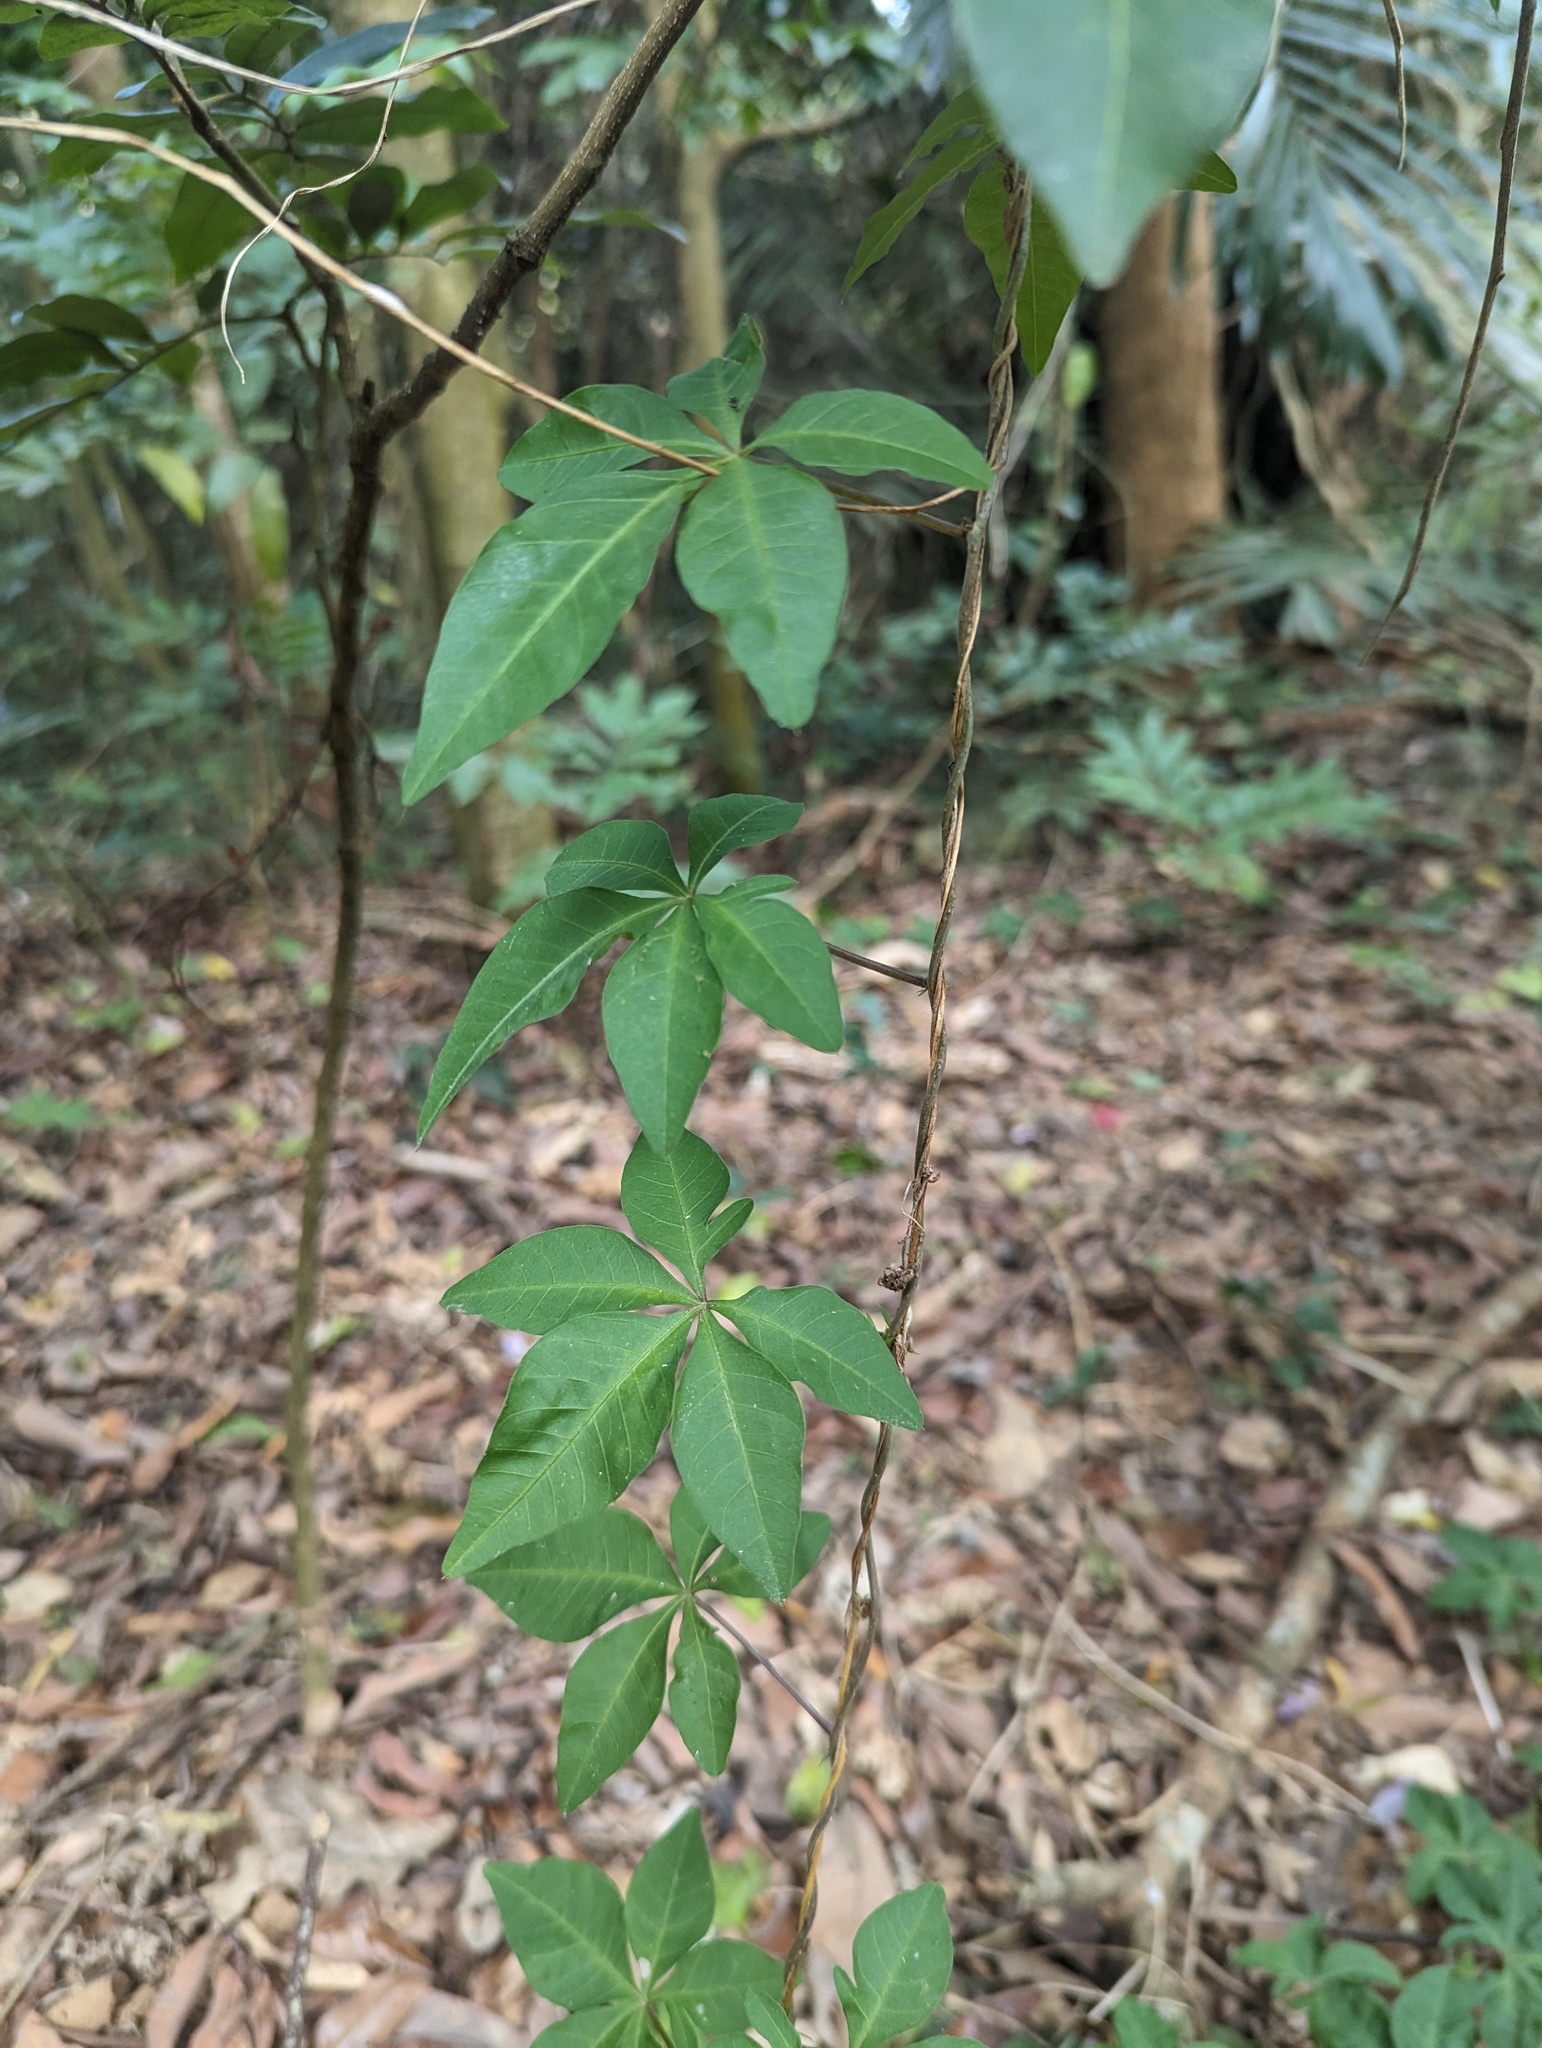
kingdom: Plantae
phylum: Tracheophyta
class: Magnoliopsida
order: Solanales
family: Convolvulaceae
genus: Ipomoea
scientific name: Ipomoea cairica
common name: Mile a minute vine
